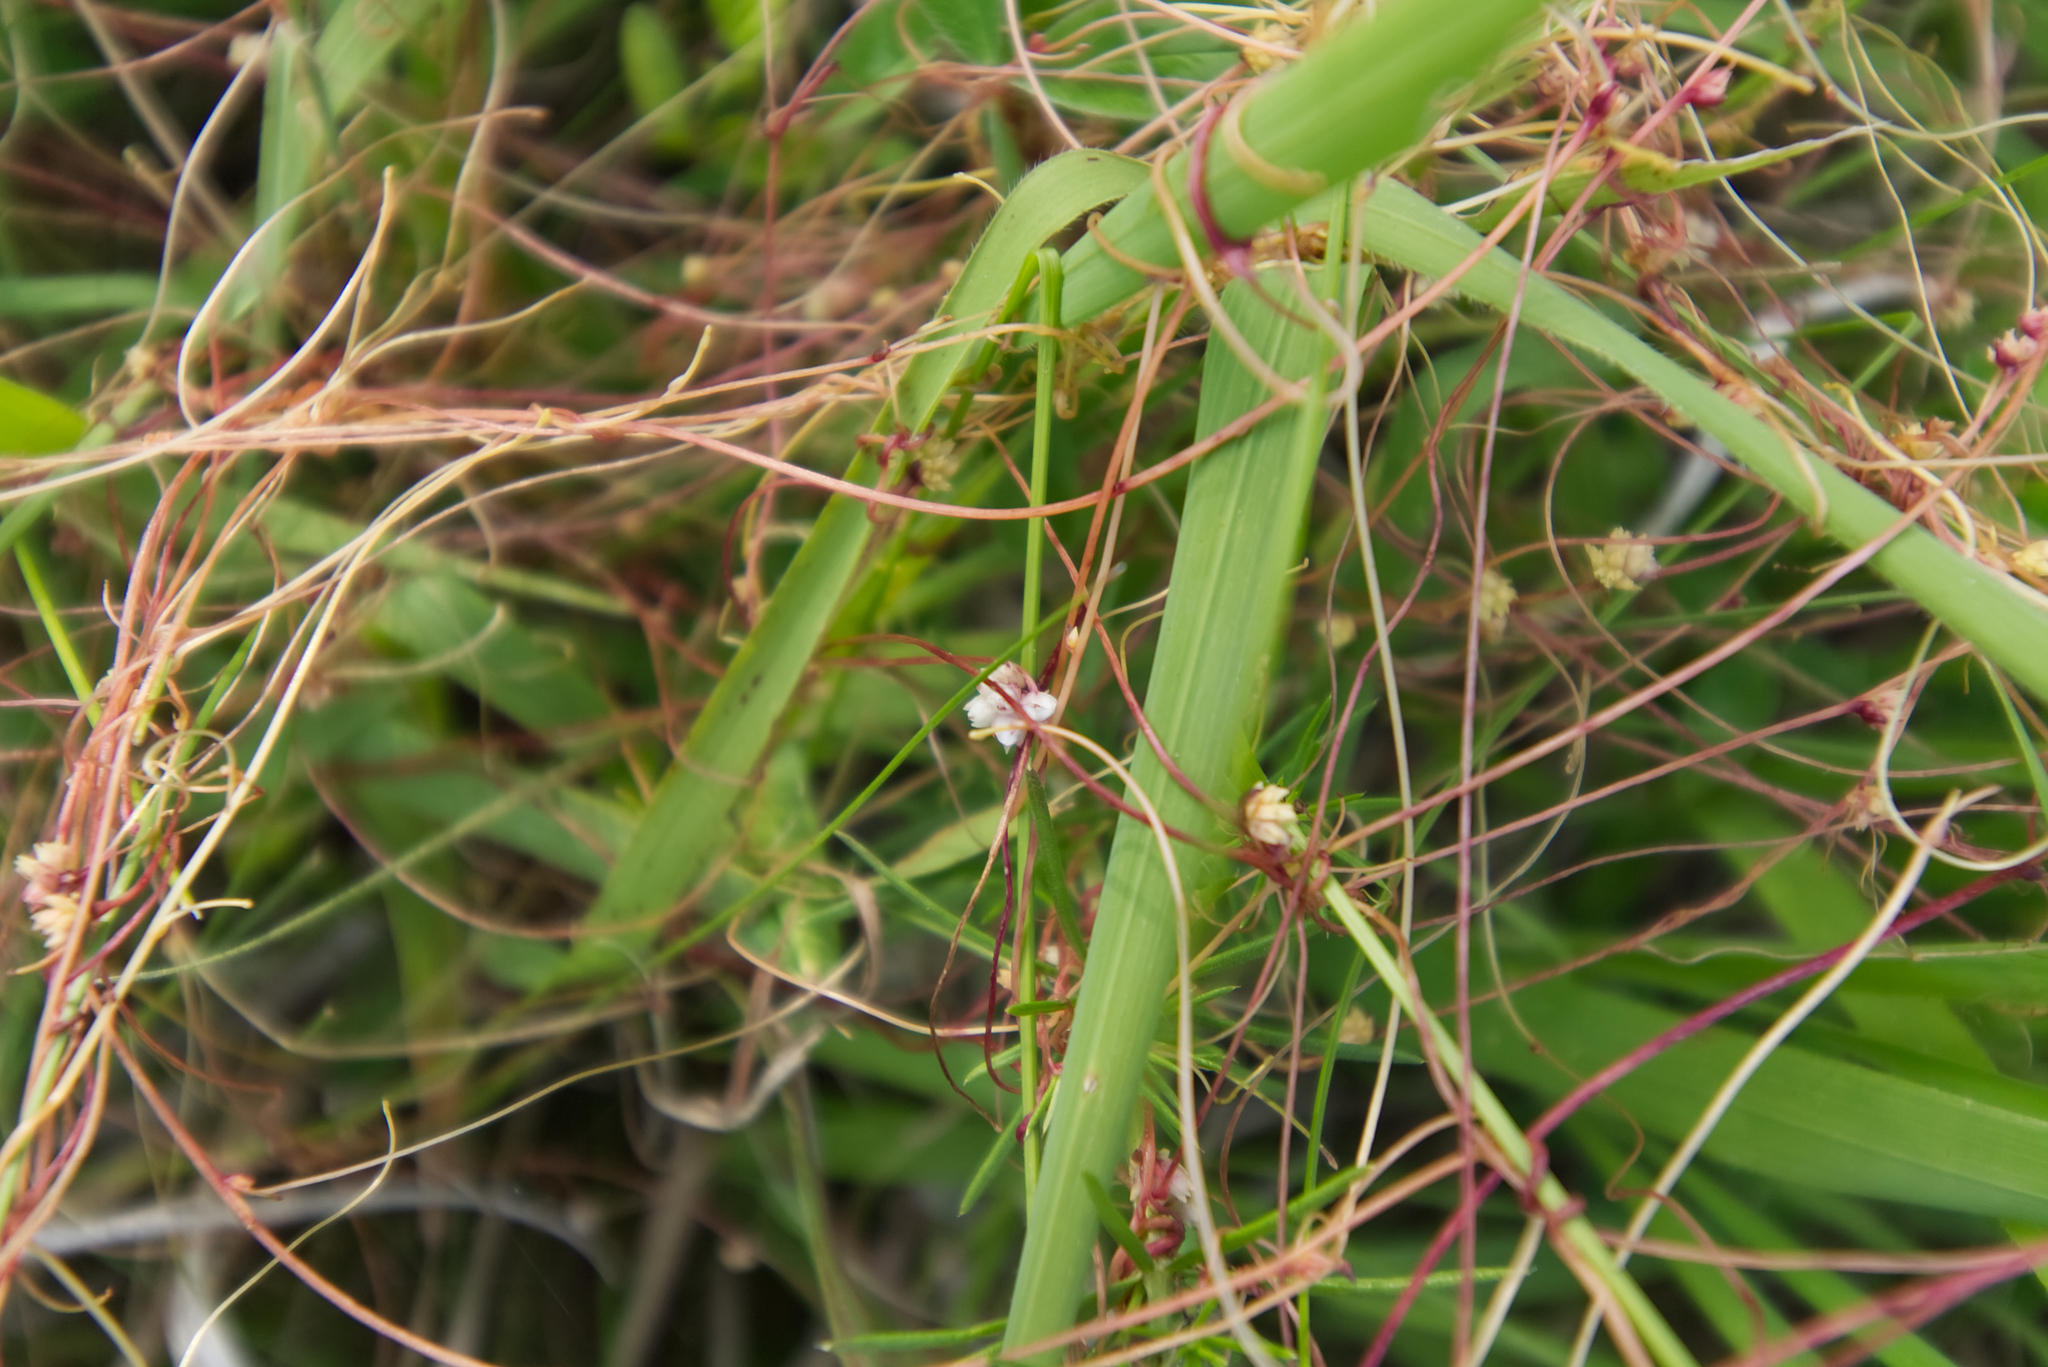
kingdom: Plantae
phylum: Tracheophyta
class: Magnoliopsida
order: Solanales
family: Convolvulaceae
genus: Cuscuta
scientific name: Cuscuta epithymum
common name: Clover dodder
